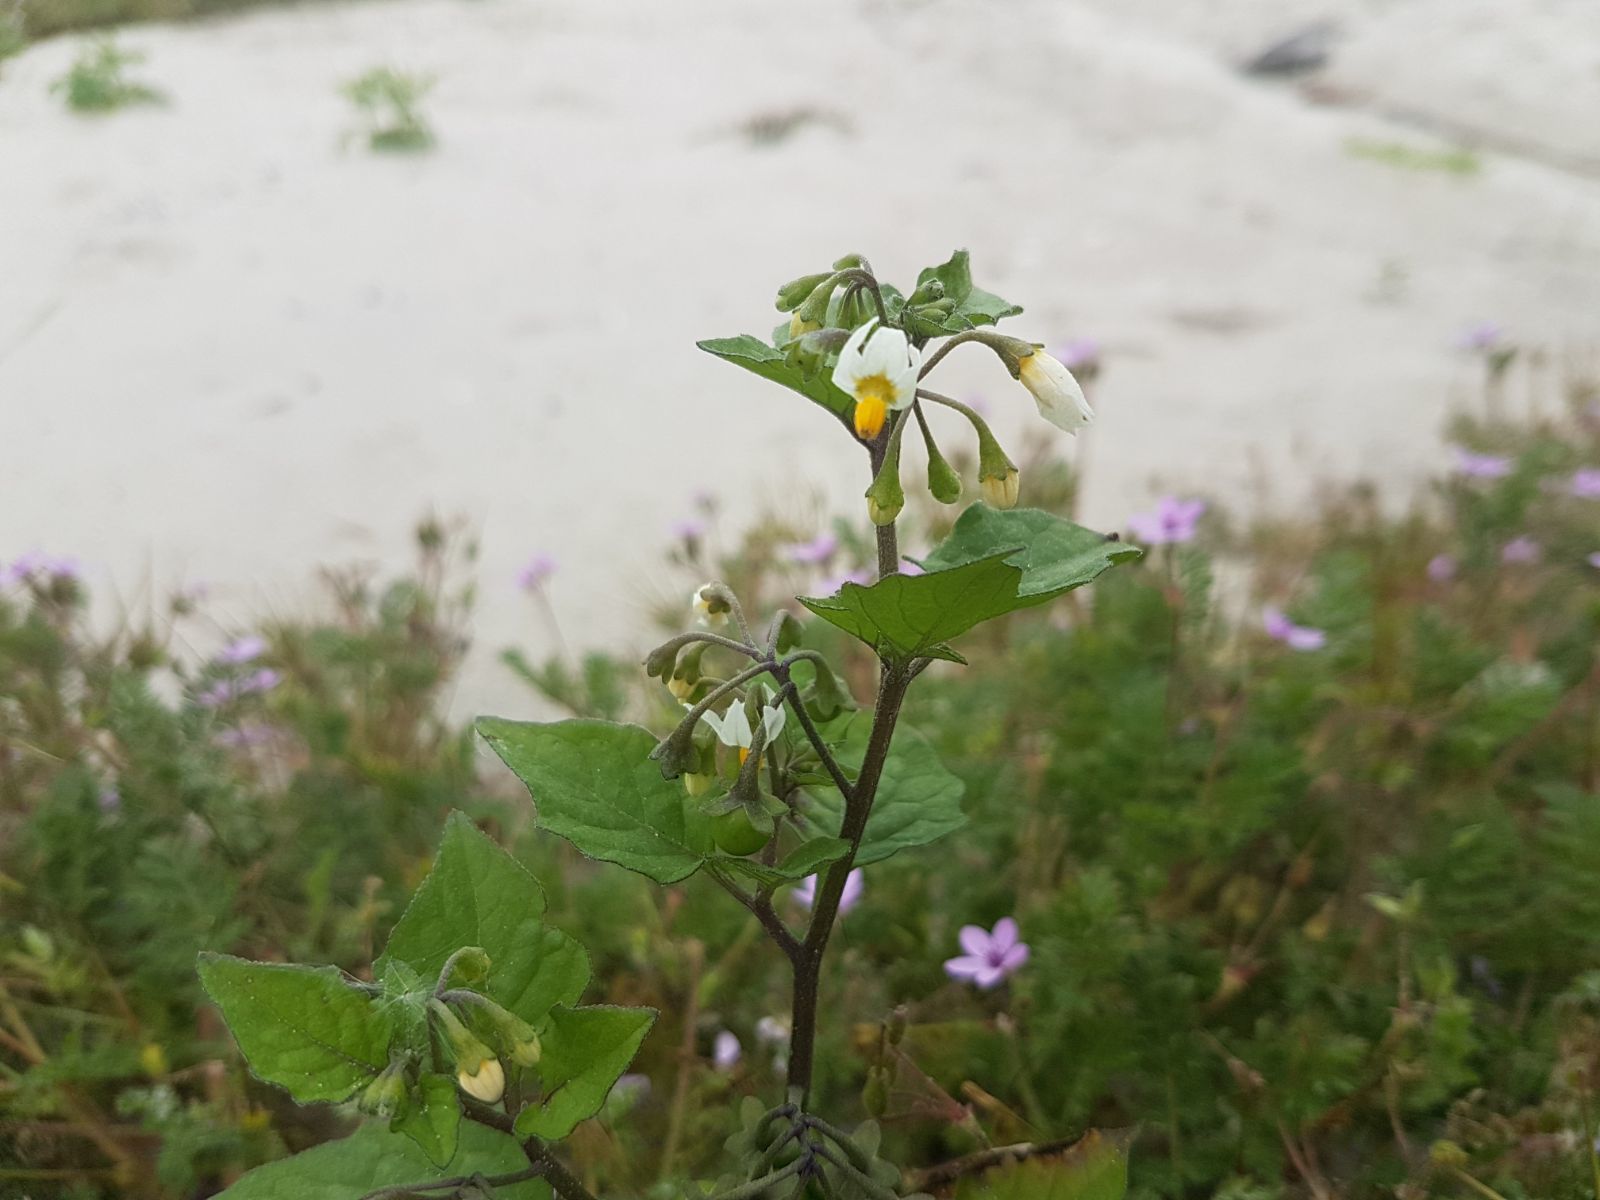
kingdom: Plantae
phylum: Tracheophyta
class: Magnoliopsida
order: Solanales
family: Solanaceae
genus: Solanum
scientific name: Solanum nigrum
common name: Black nightshade
